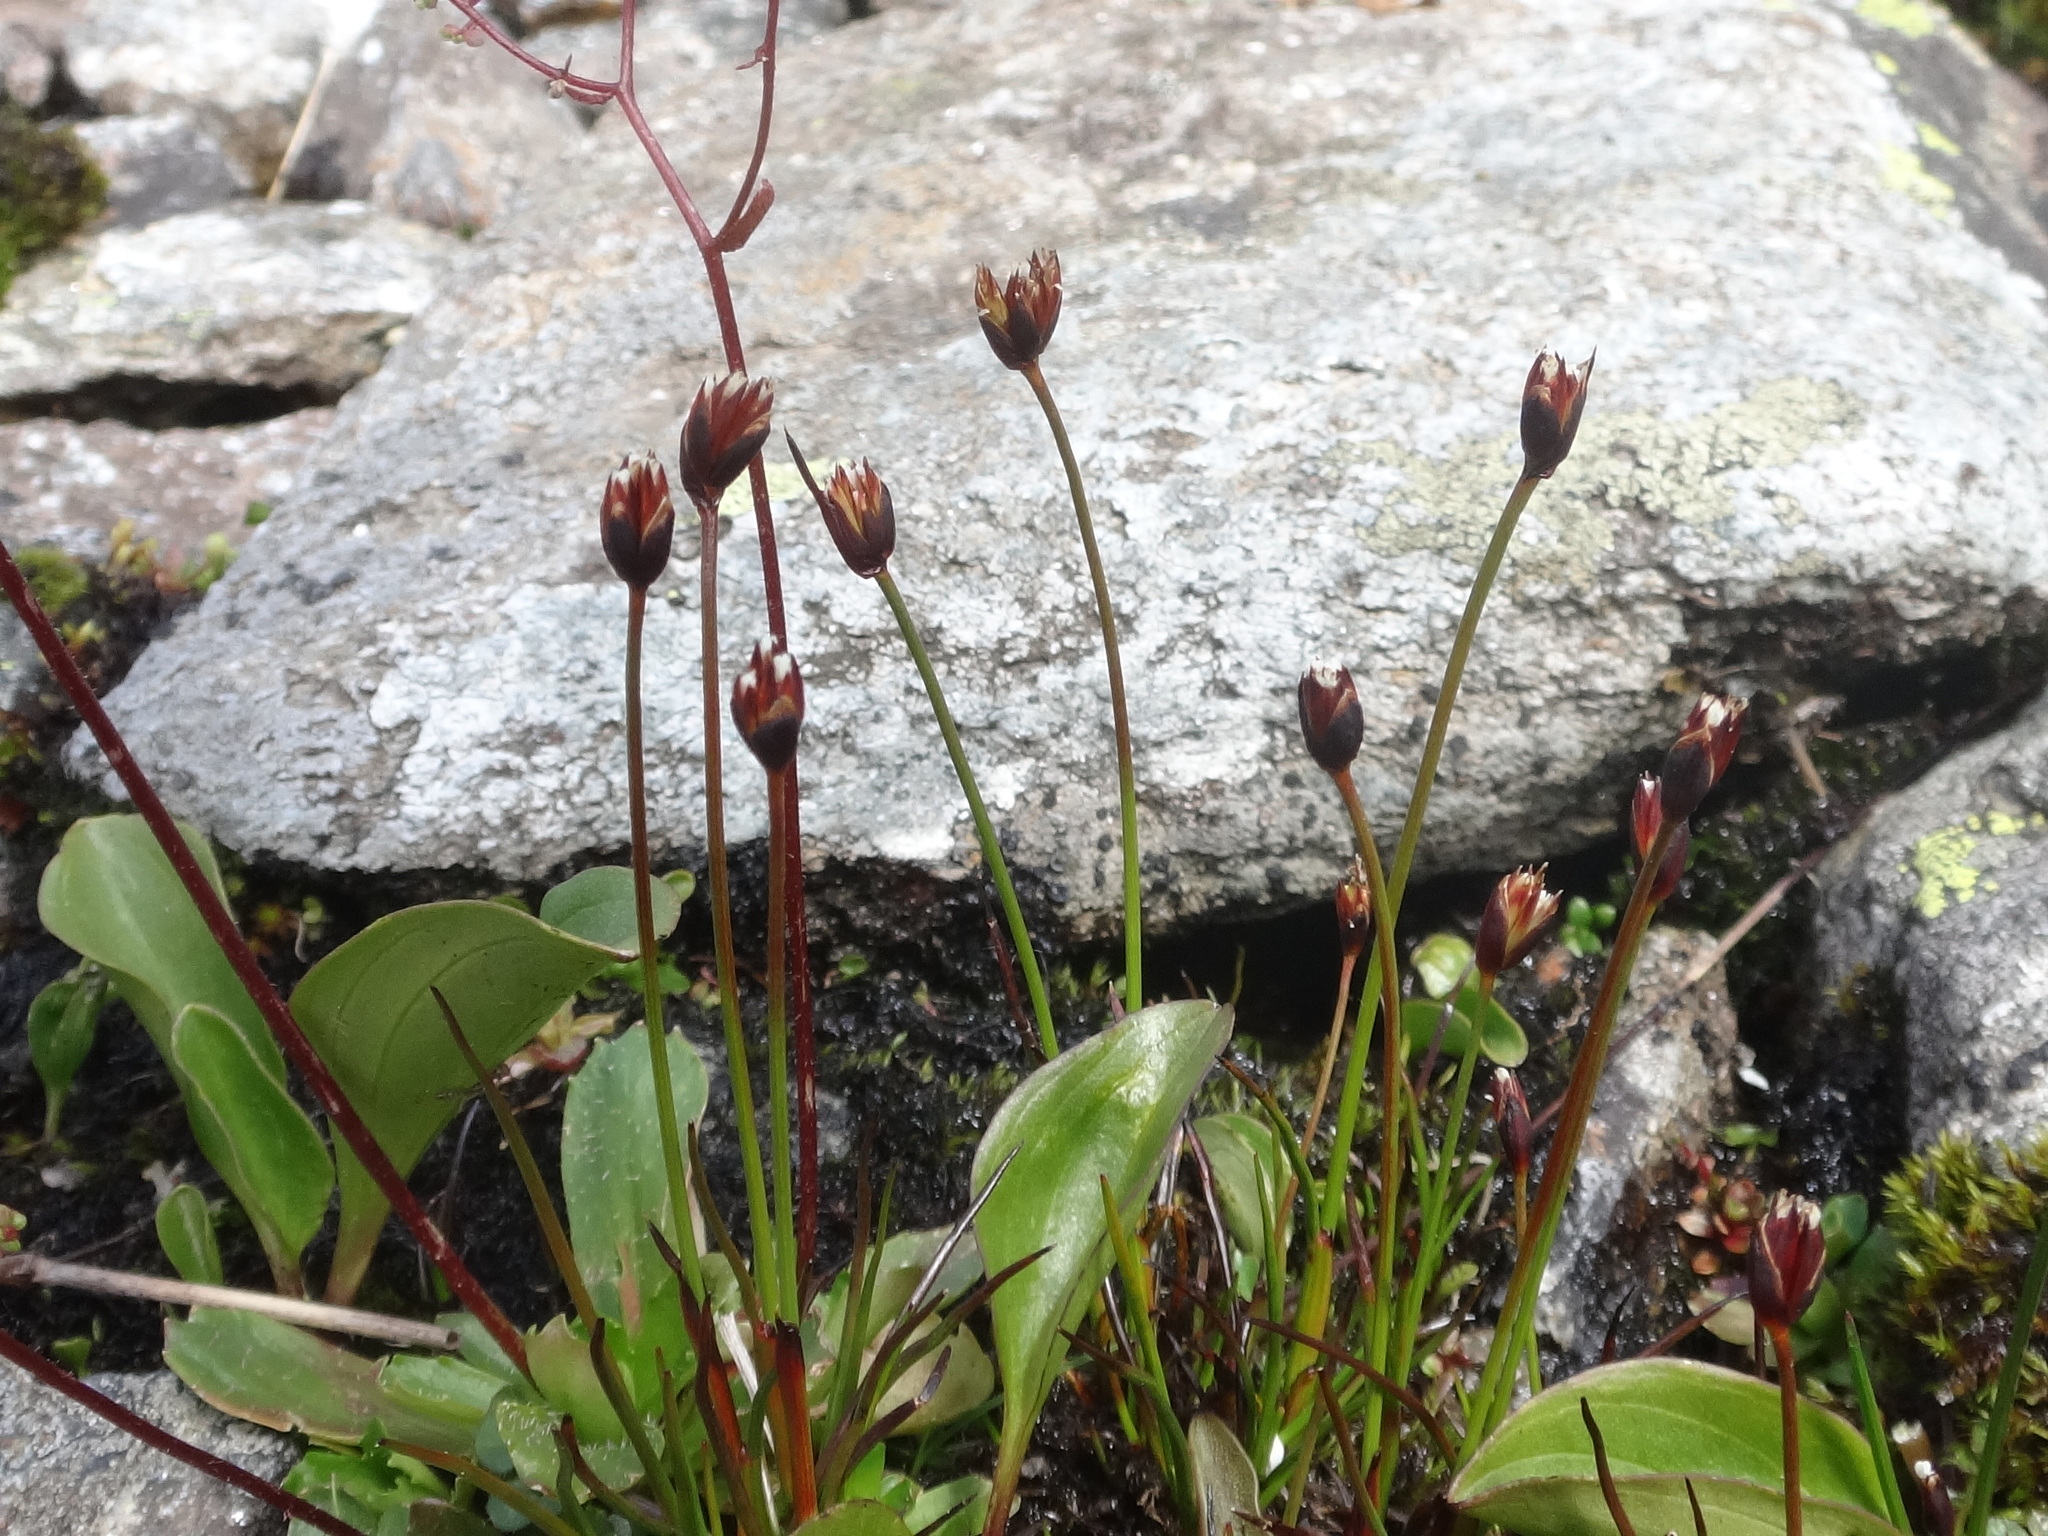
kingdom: Plantae
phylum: Tracheophyta
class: Liliopsida
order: Poales
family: Juncaceae
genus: Juncus
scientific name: Juncus triglumis
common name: Three-flowered rush
